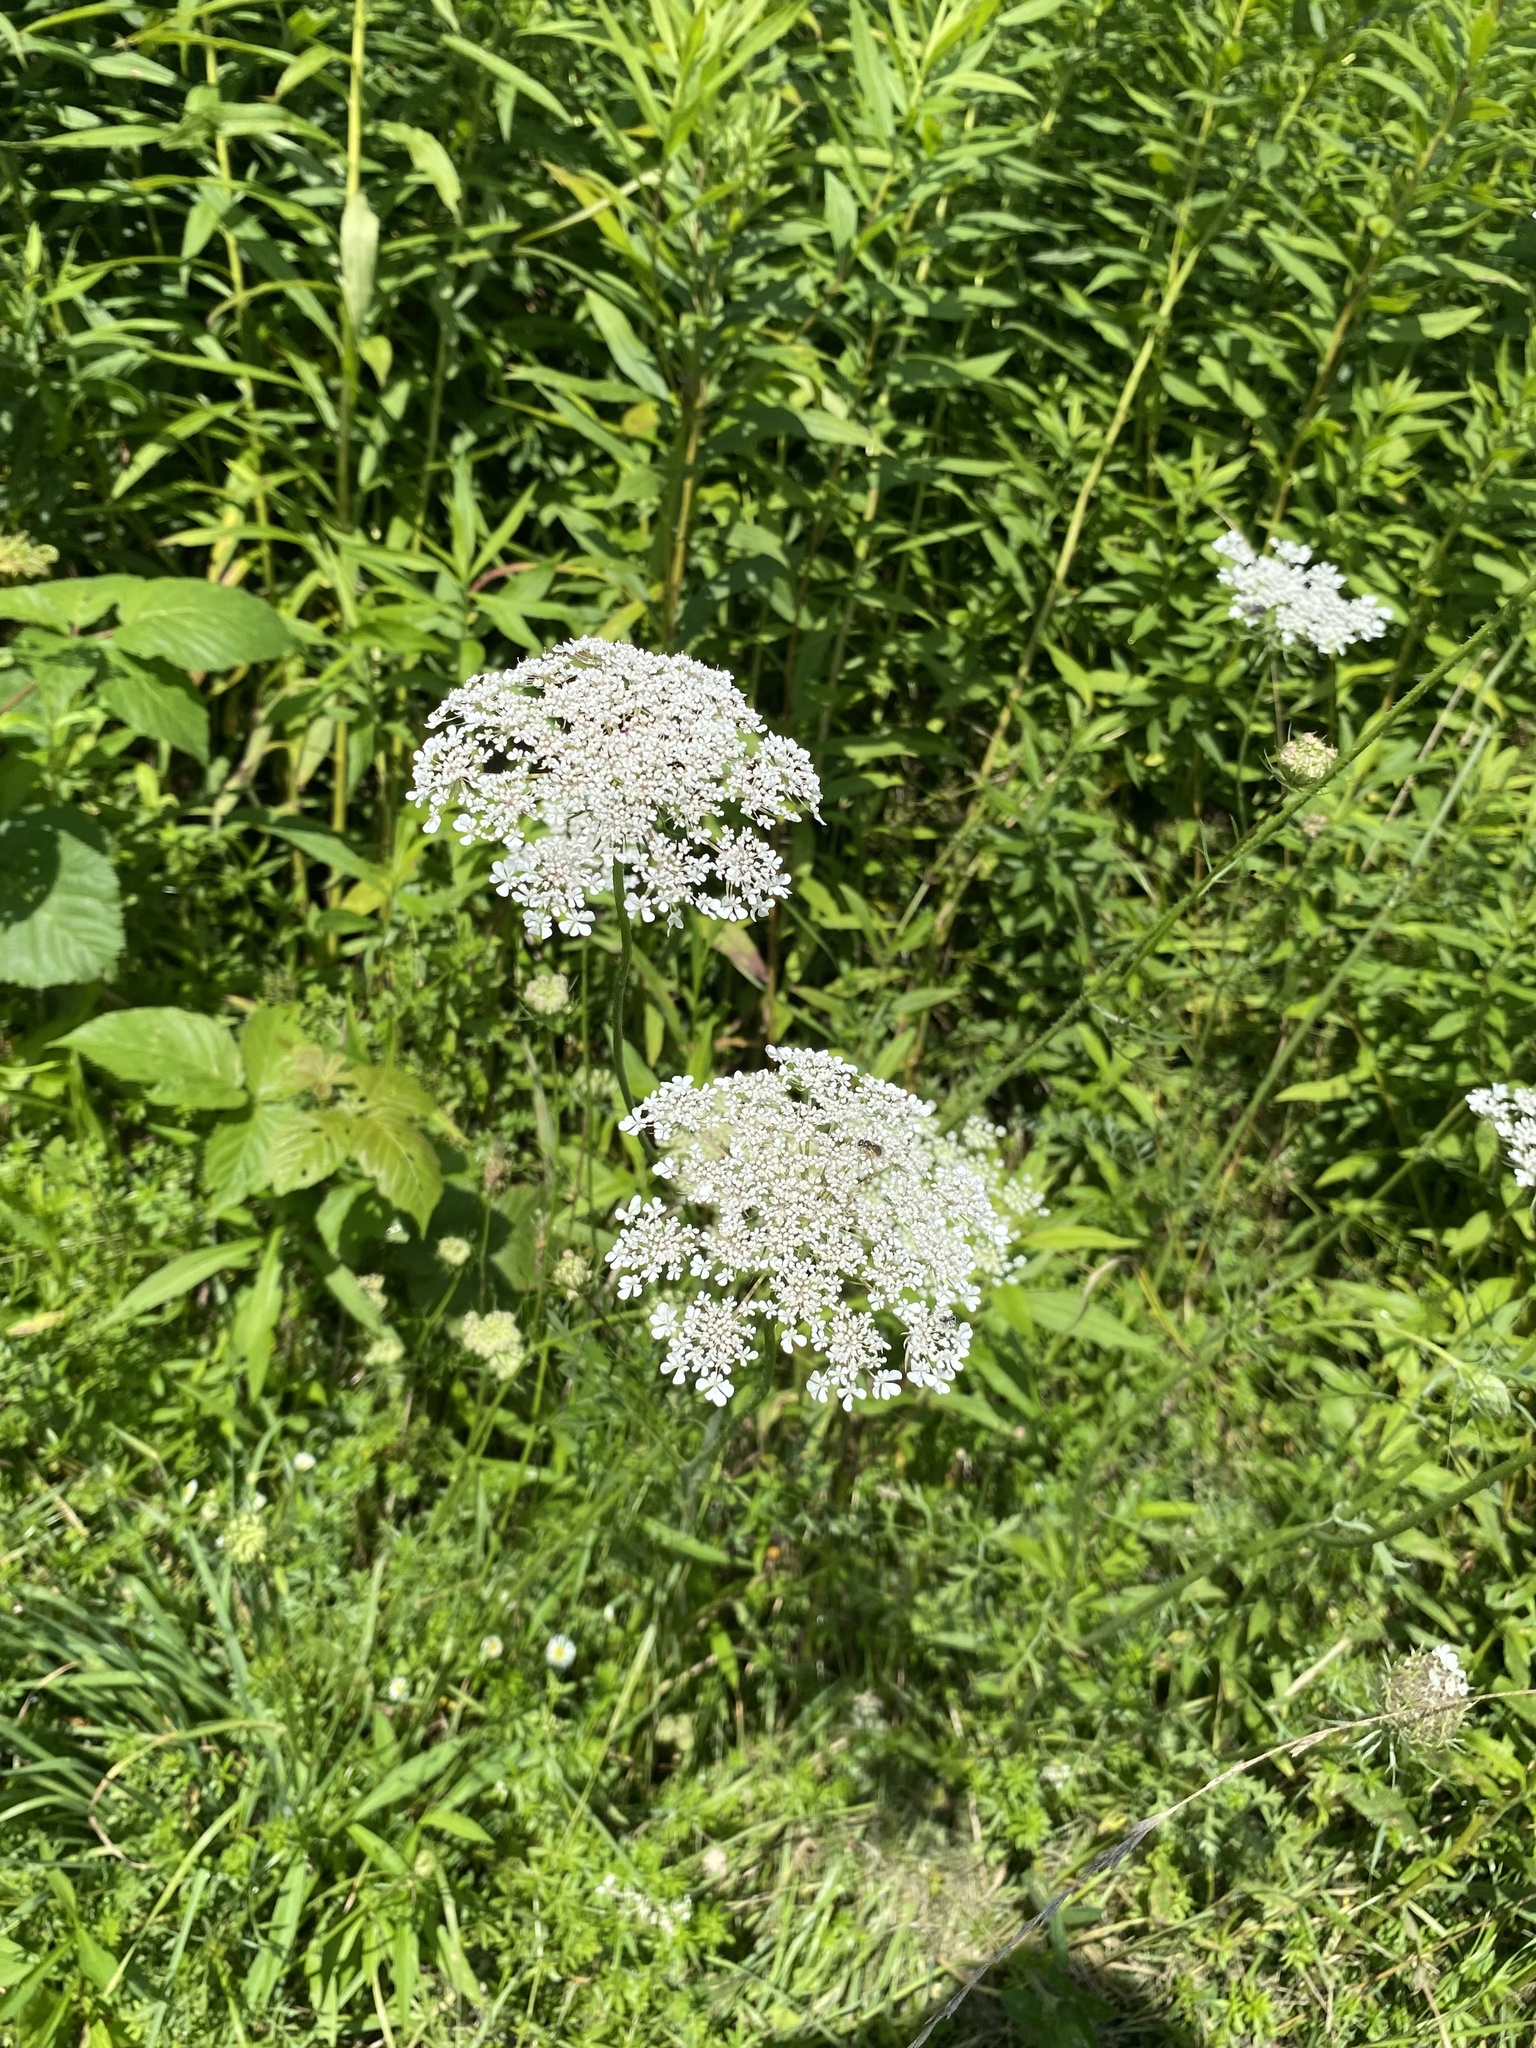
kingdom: Plantae
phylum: Tracheophyta
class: Magnoliopsida
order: Apiales
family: Apiaceae
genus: Daucus
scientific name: Daucus carota
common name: Wild carrot
